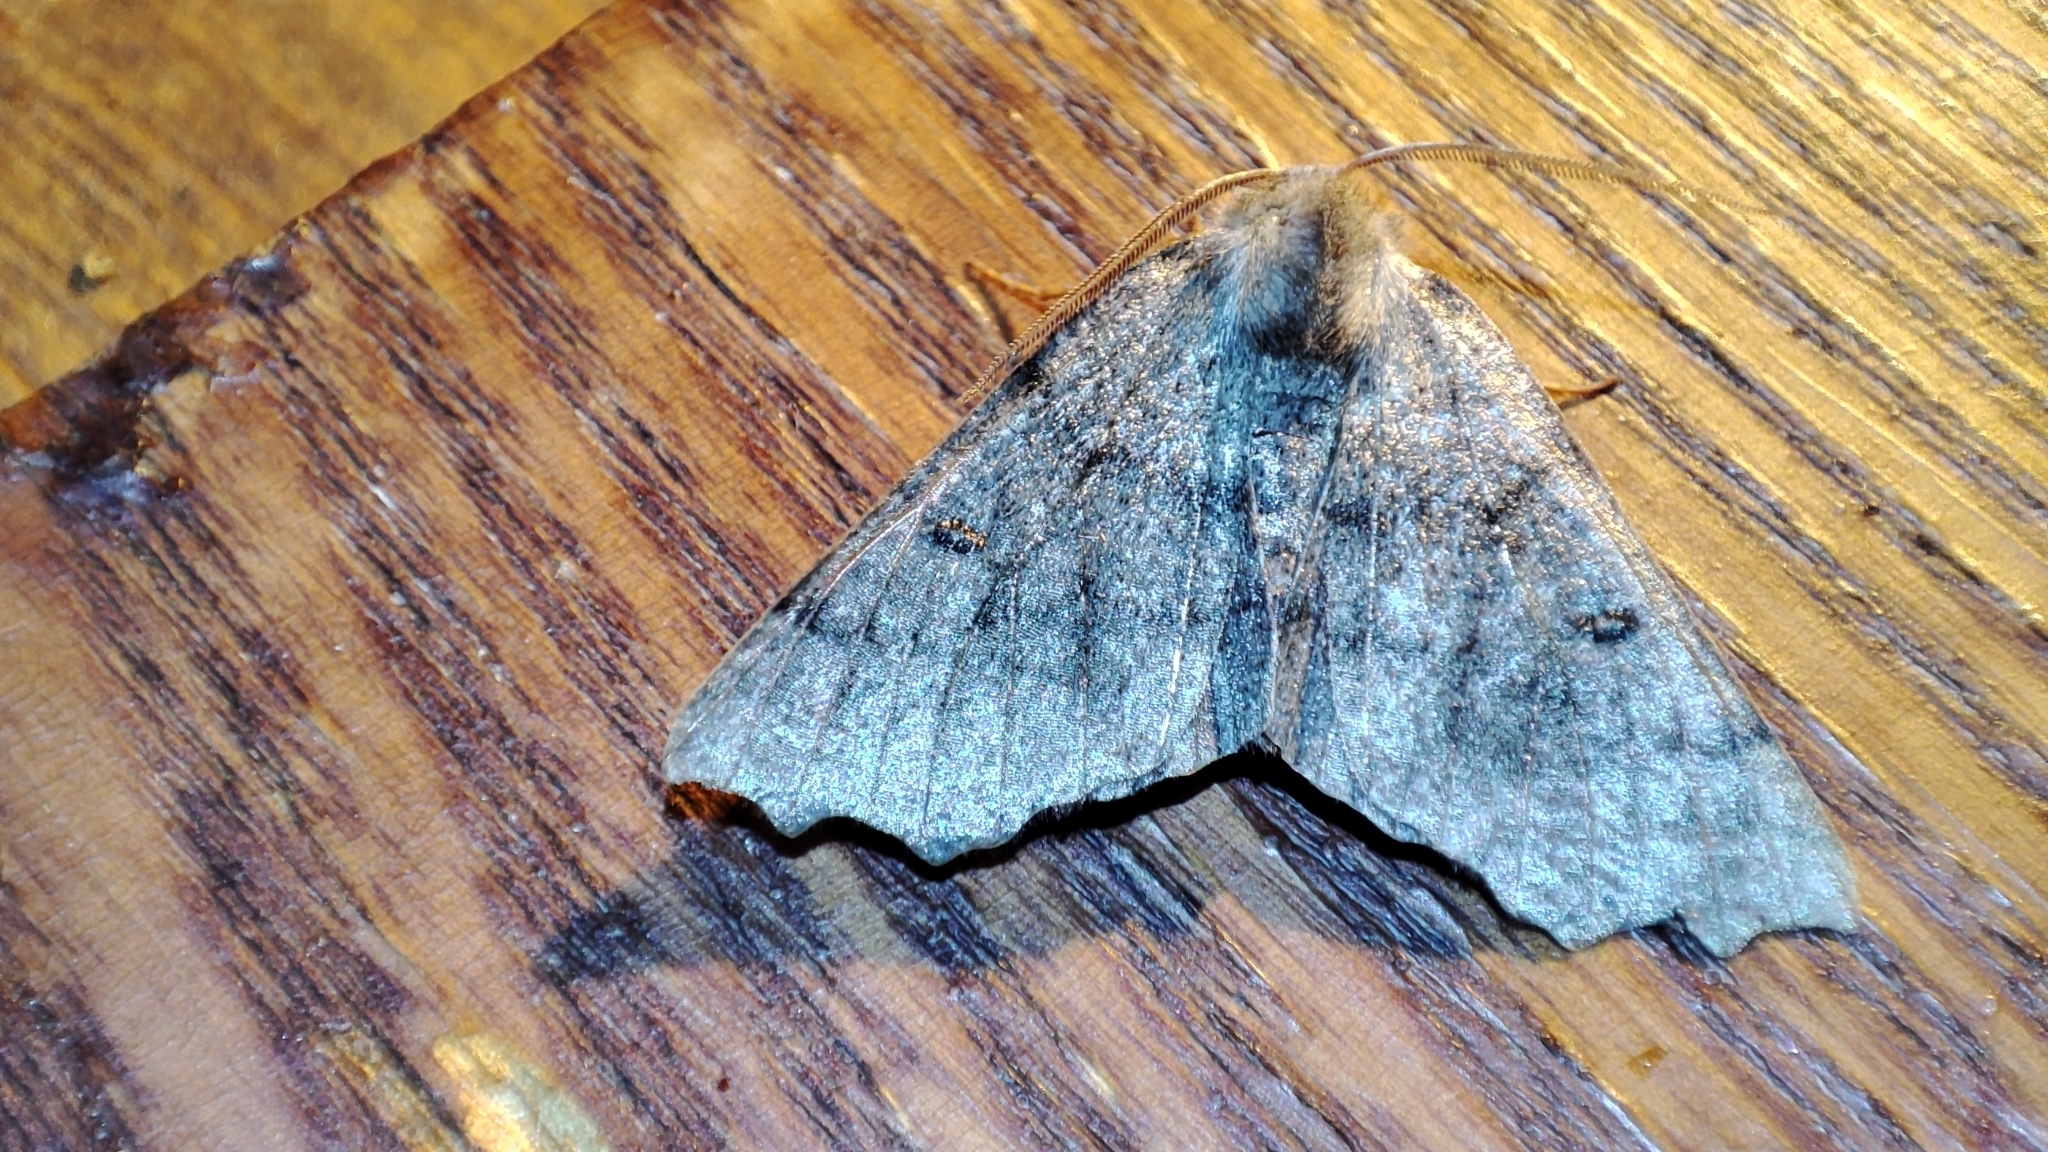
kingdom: Animalia
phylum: Arthropoda
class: Insecta
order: Lepidoptera
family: Geometridae
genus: Odontopera
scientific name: Odontopera bidentata
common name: Scalloped hazel
